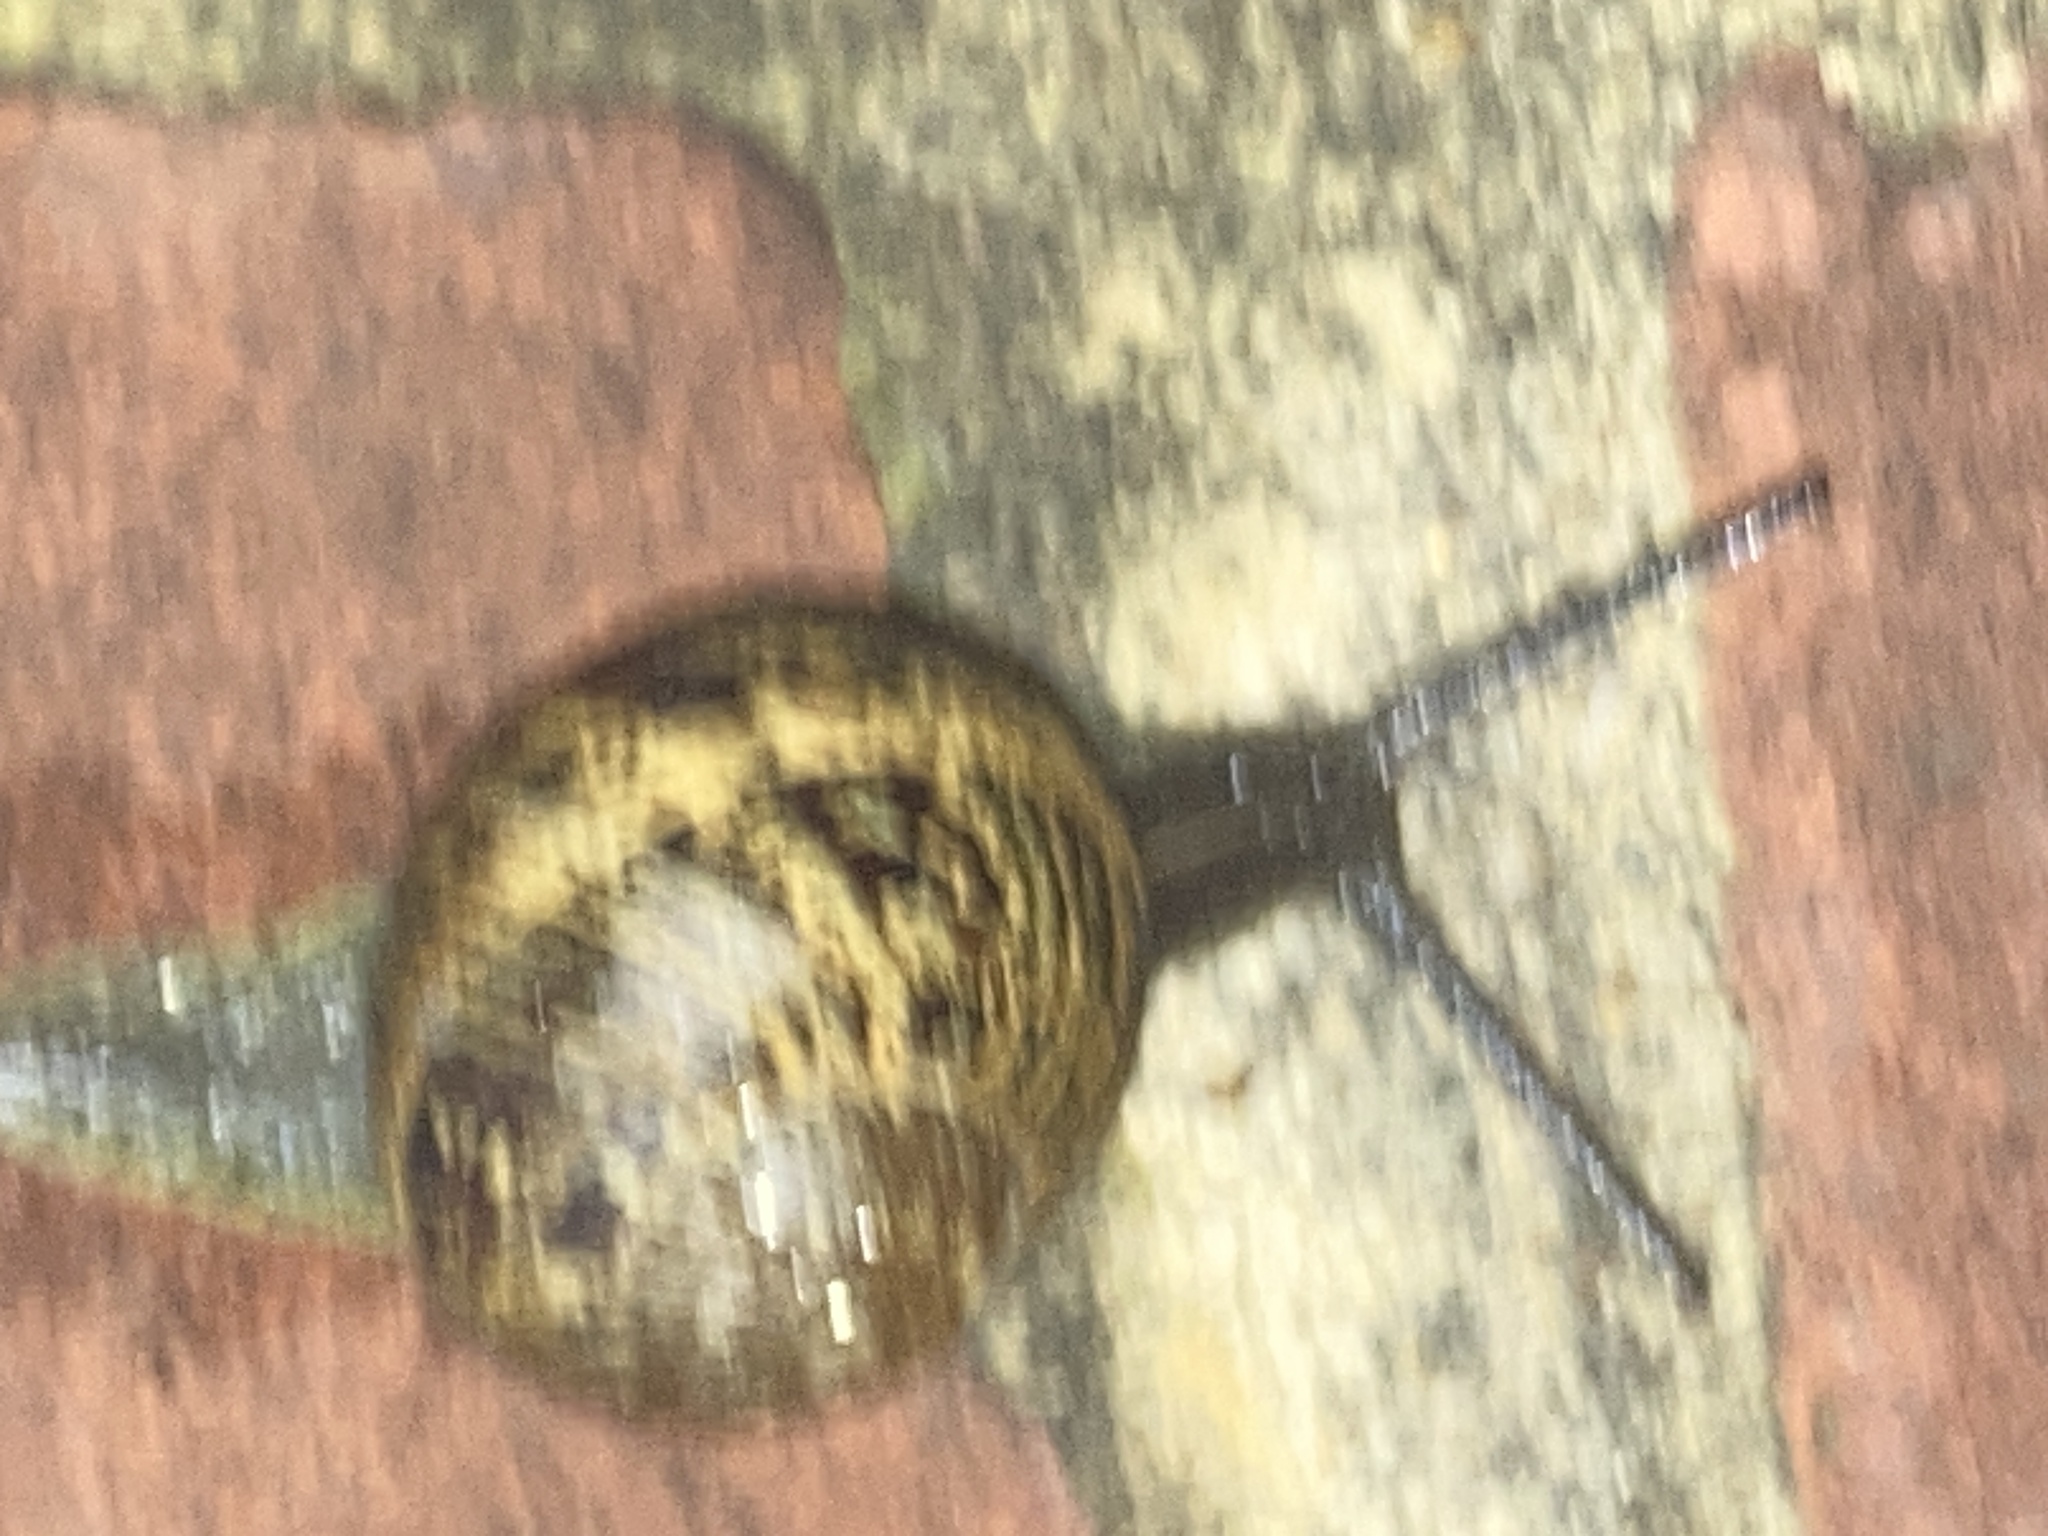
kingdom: Animalia
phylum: Mollusca
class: Gastropoda
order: Stylommatophora
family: Helicidae
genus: Cornu
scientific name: Cornu aspersum
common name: Brown garden snail
